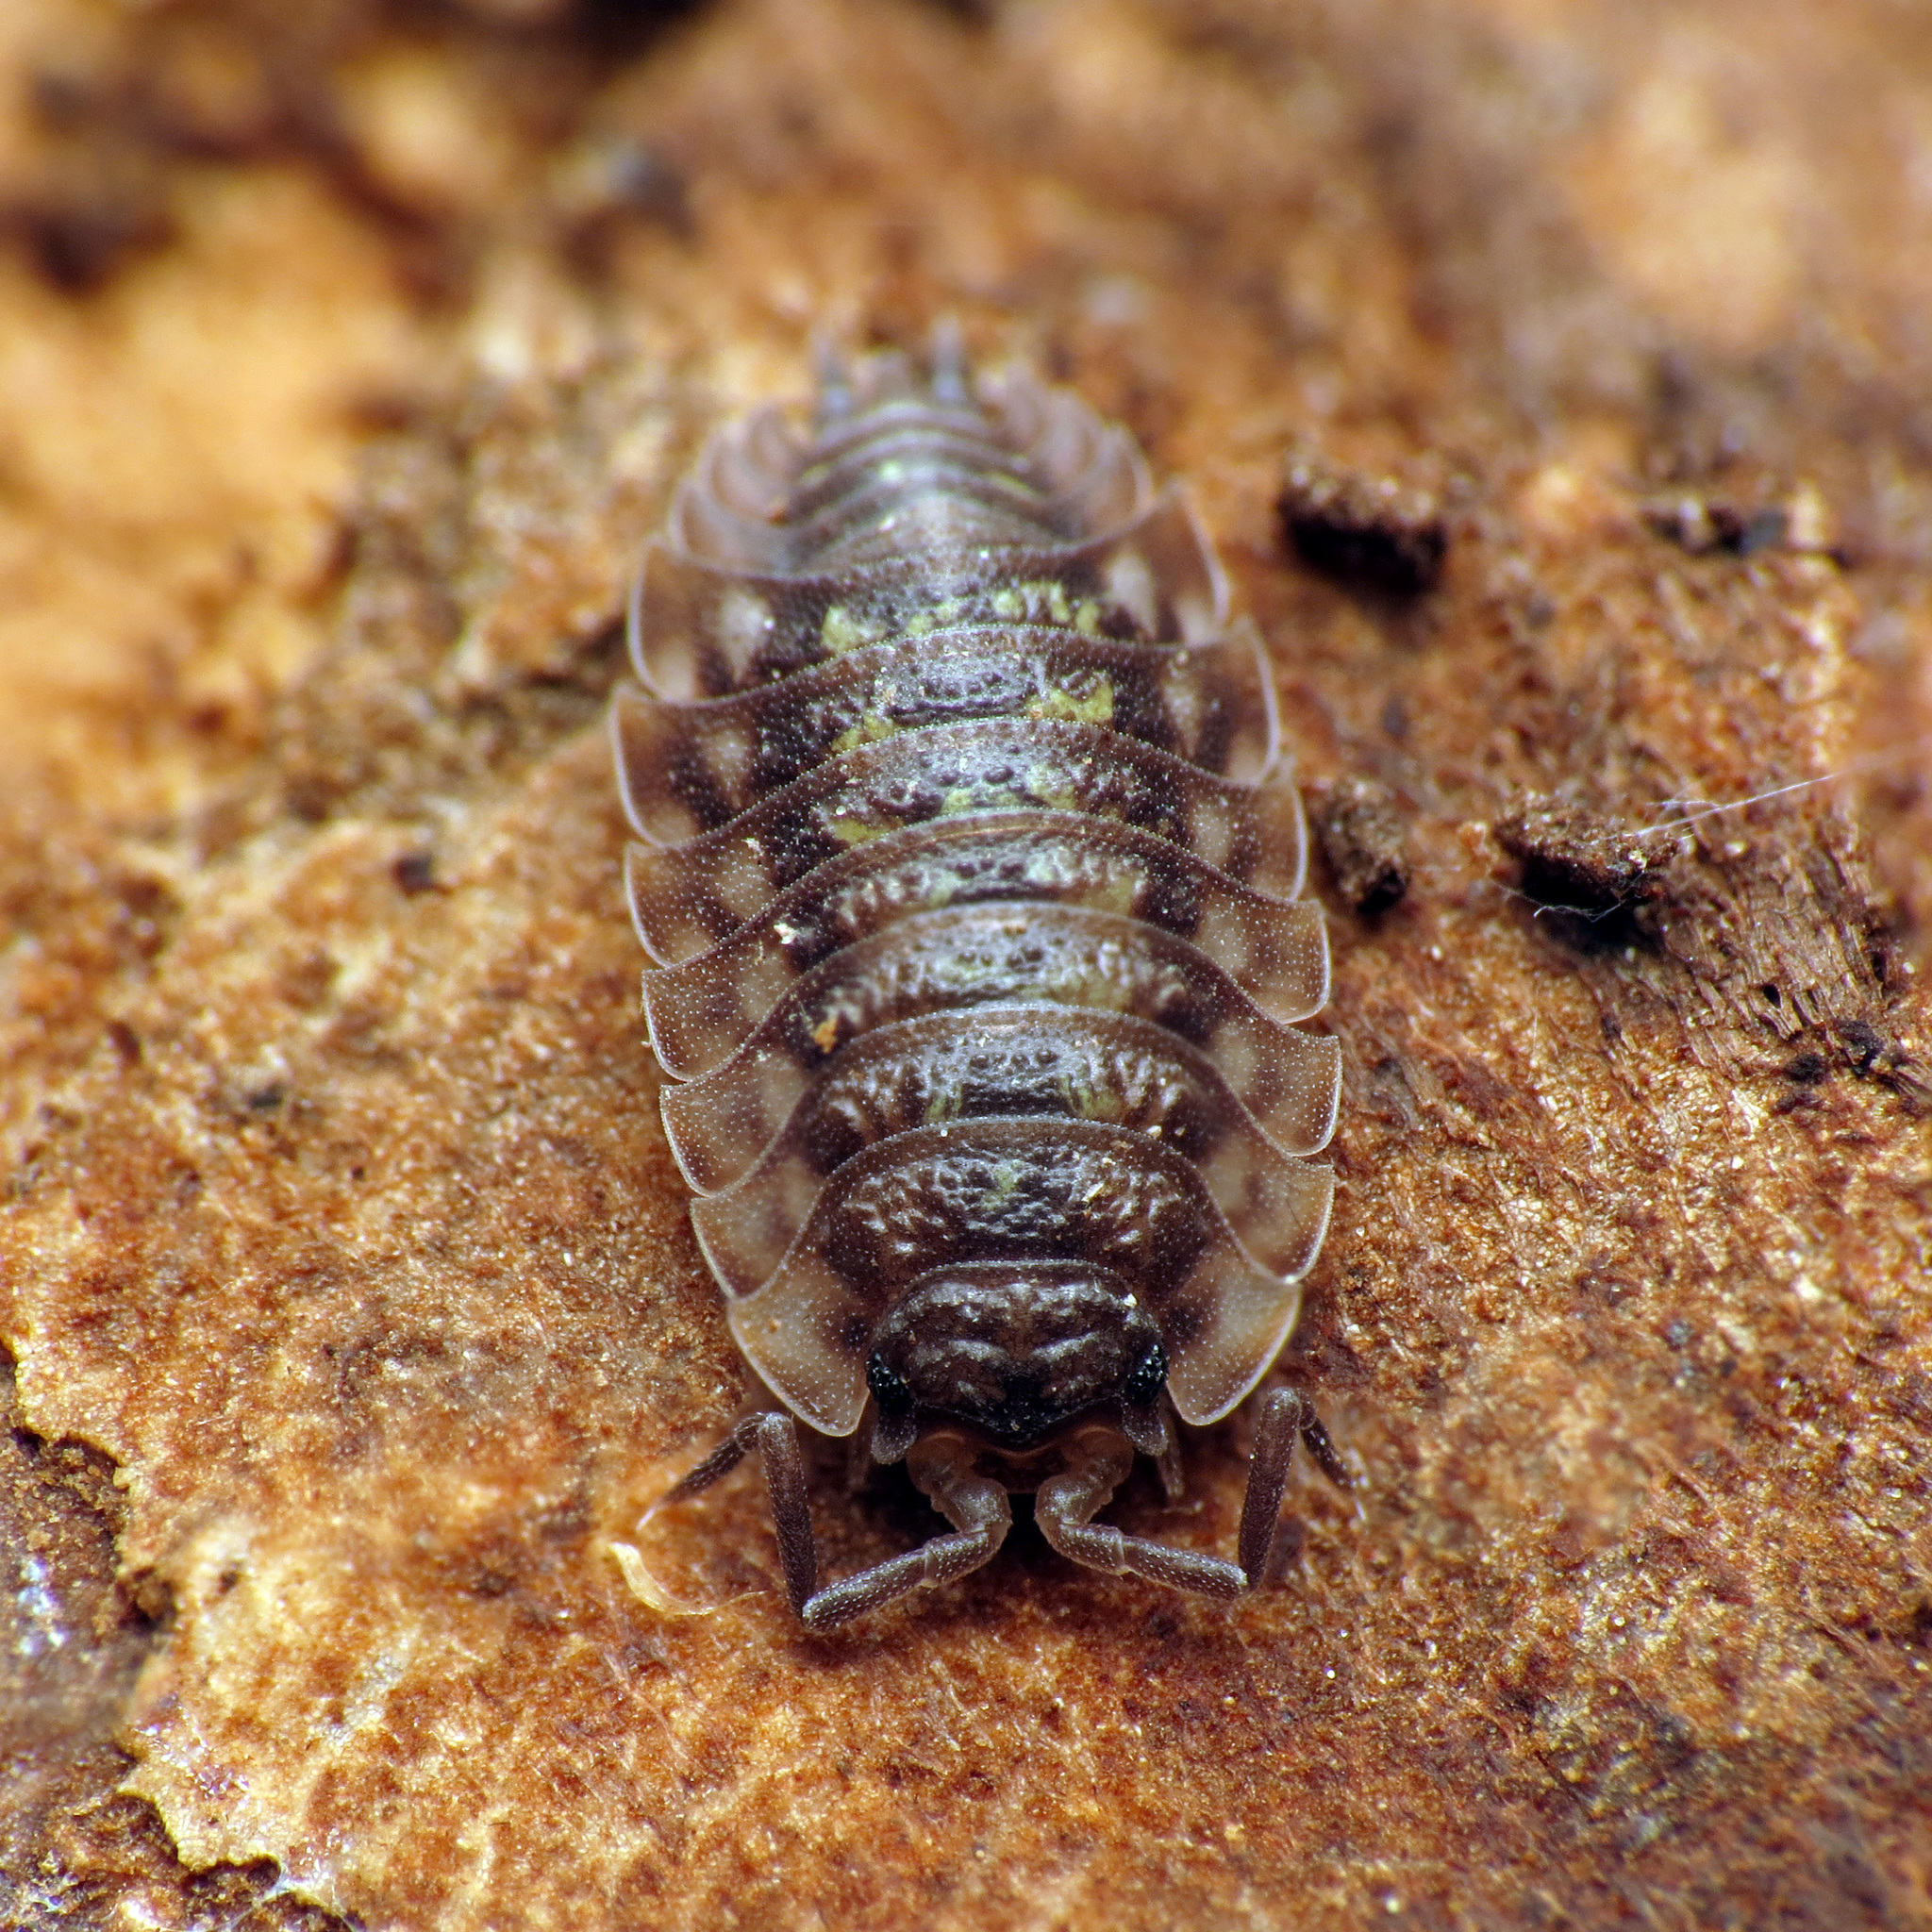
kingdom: Animalia
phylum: Arthropoda
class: Malacostraca
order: Isopoda
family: Oniscidae
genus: Oniscus
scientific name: Oniscus asellus
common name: Common shiny woodlouse
